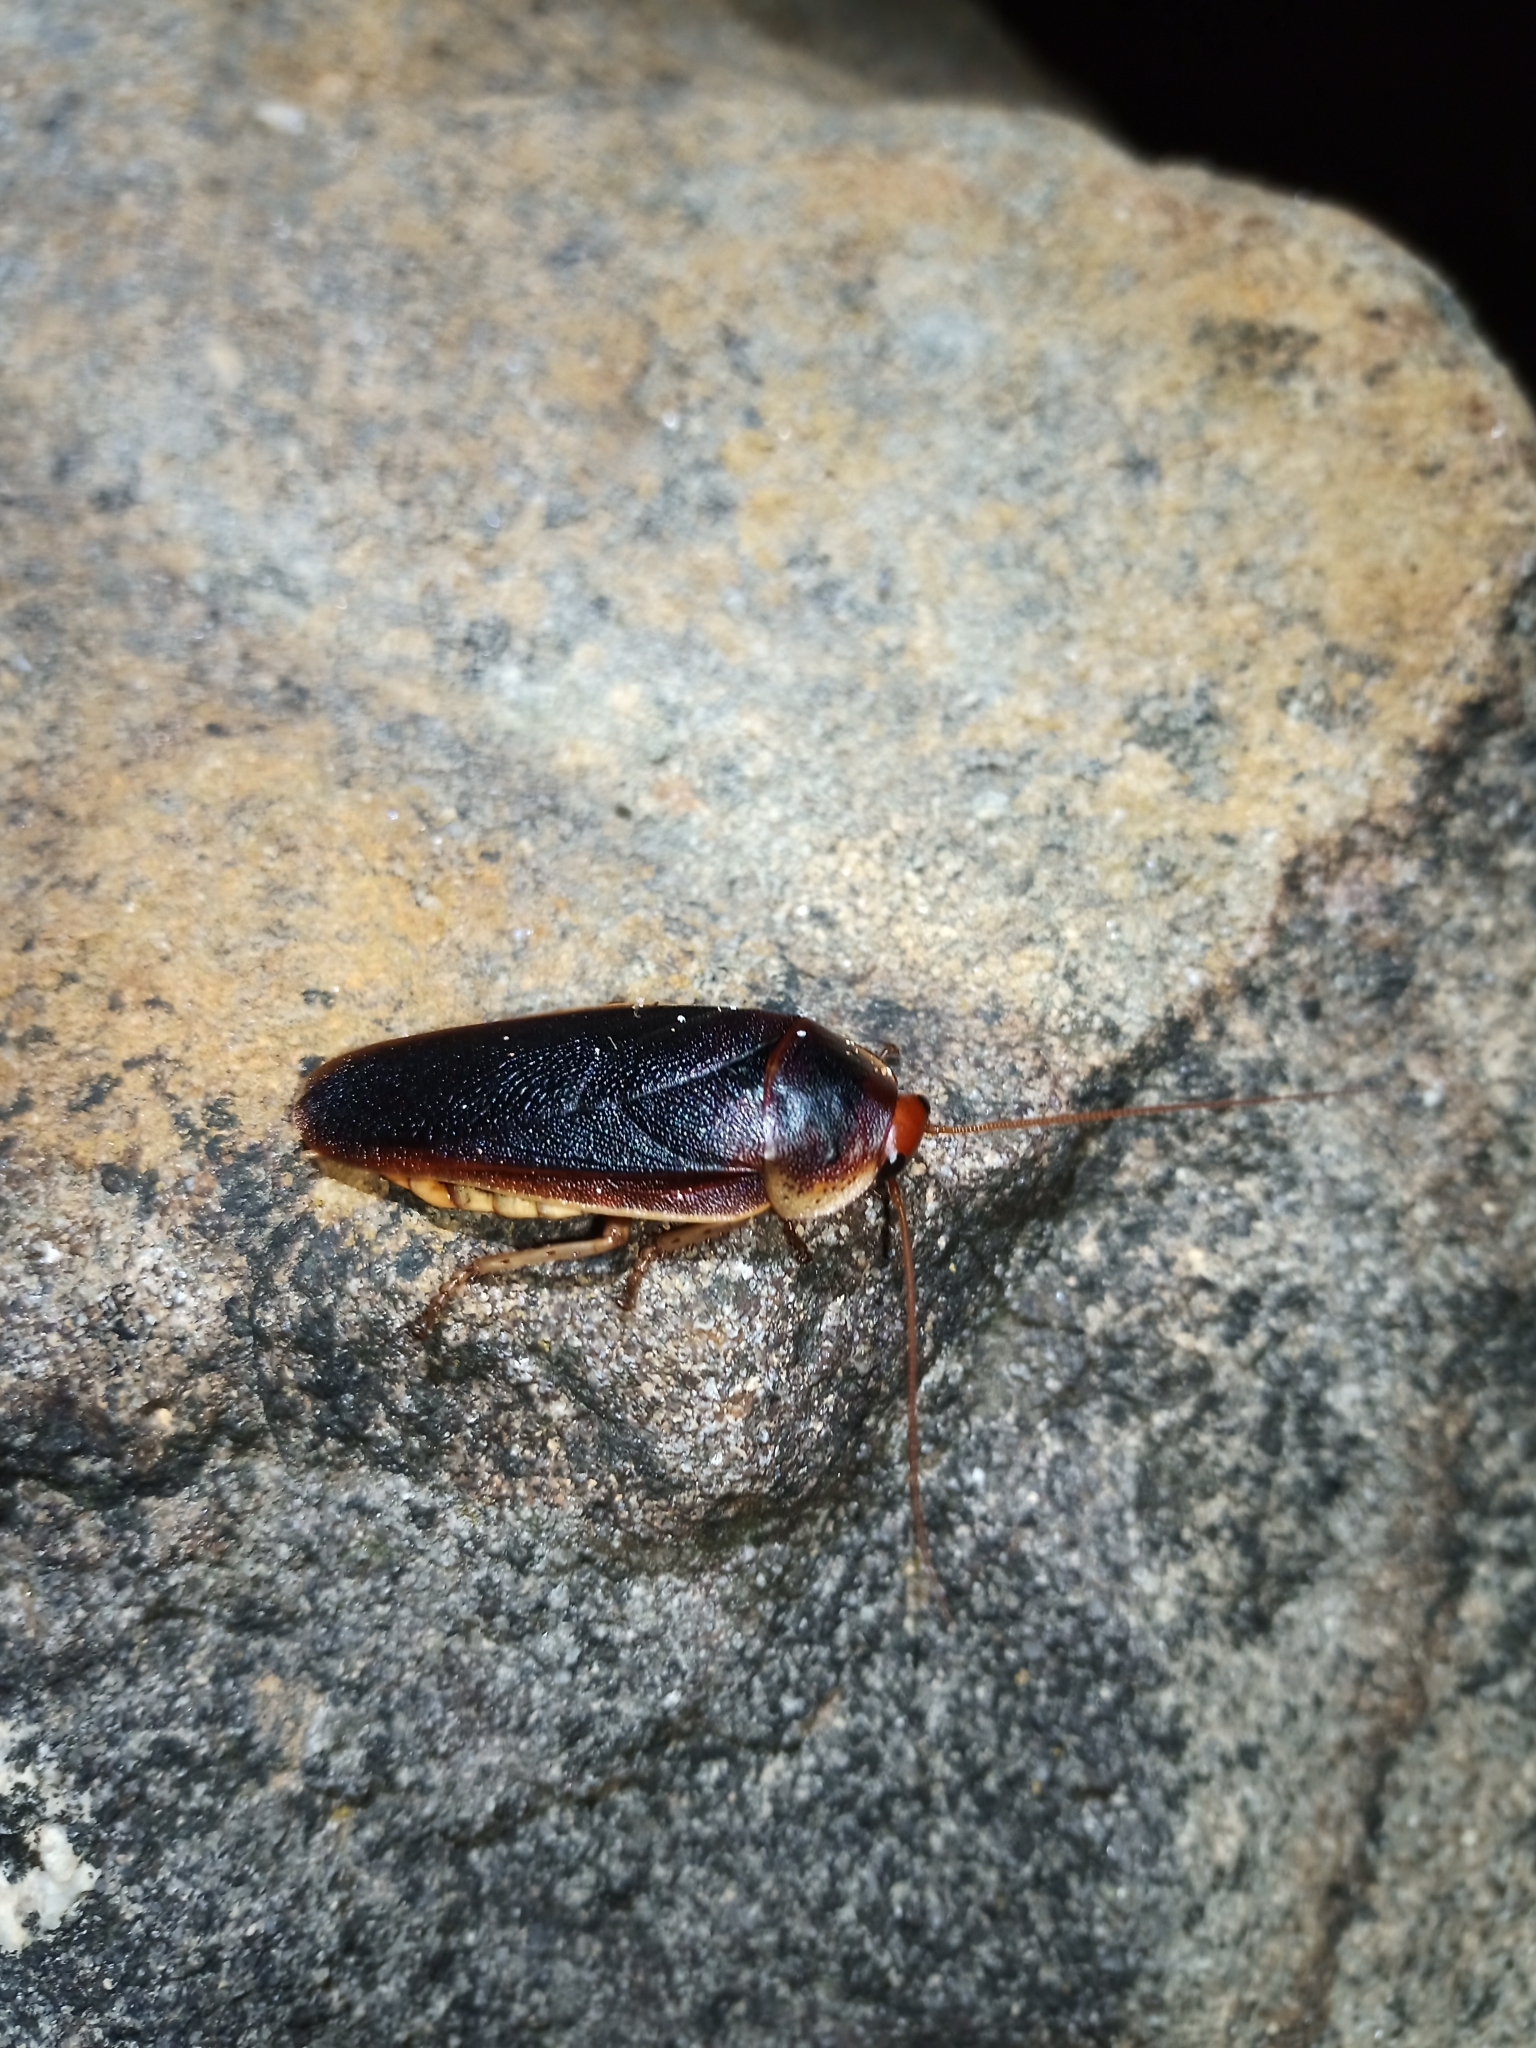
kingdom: Animalia
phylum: Arthropoda
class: Insecta
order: Blattodea
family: Blaberidae
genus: Aptera
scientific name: Aptera fusca
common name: Cape mountain cockroach
